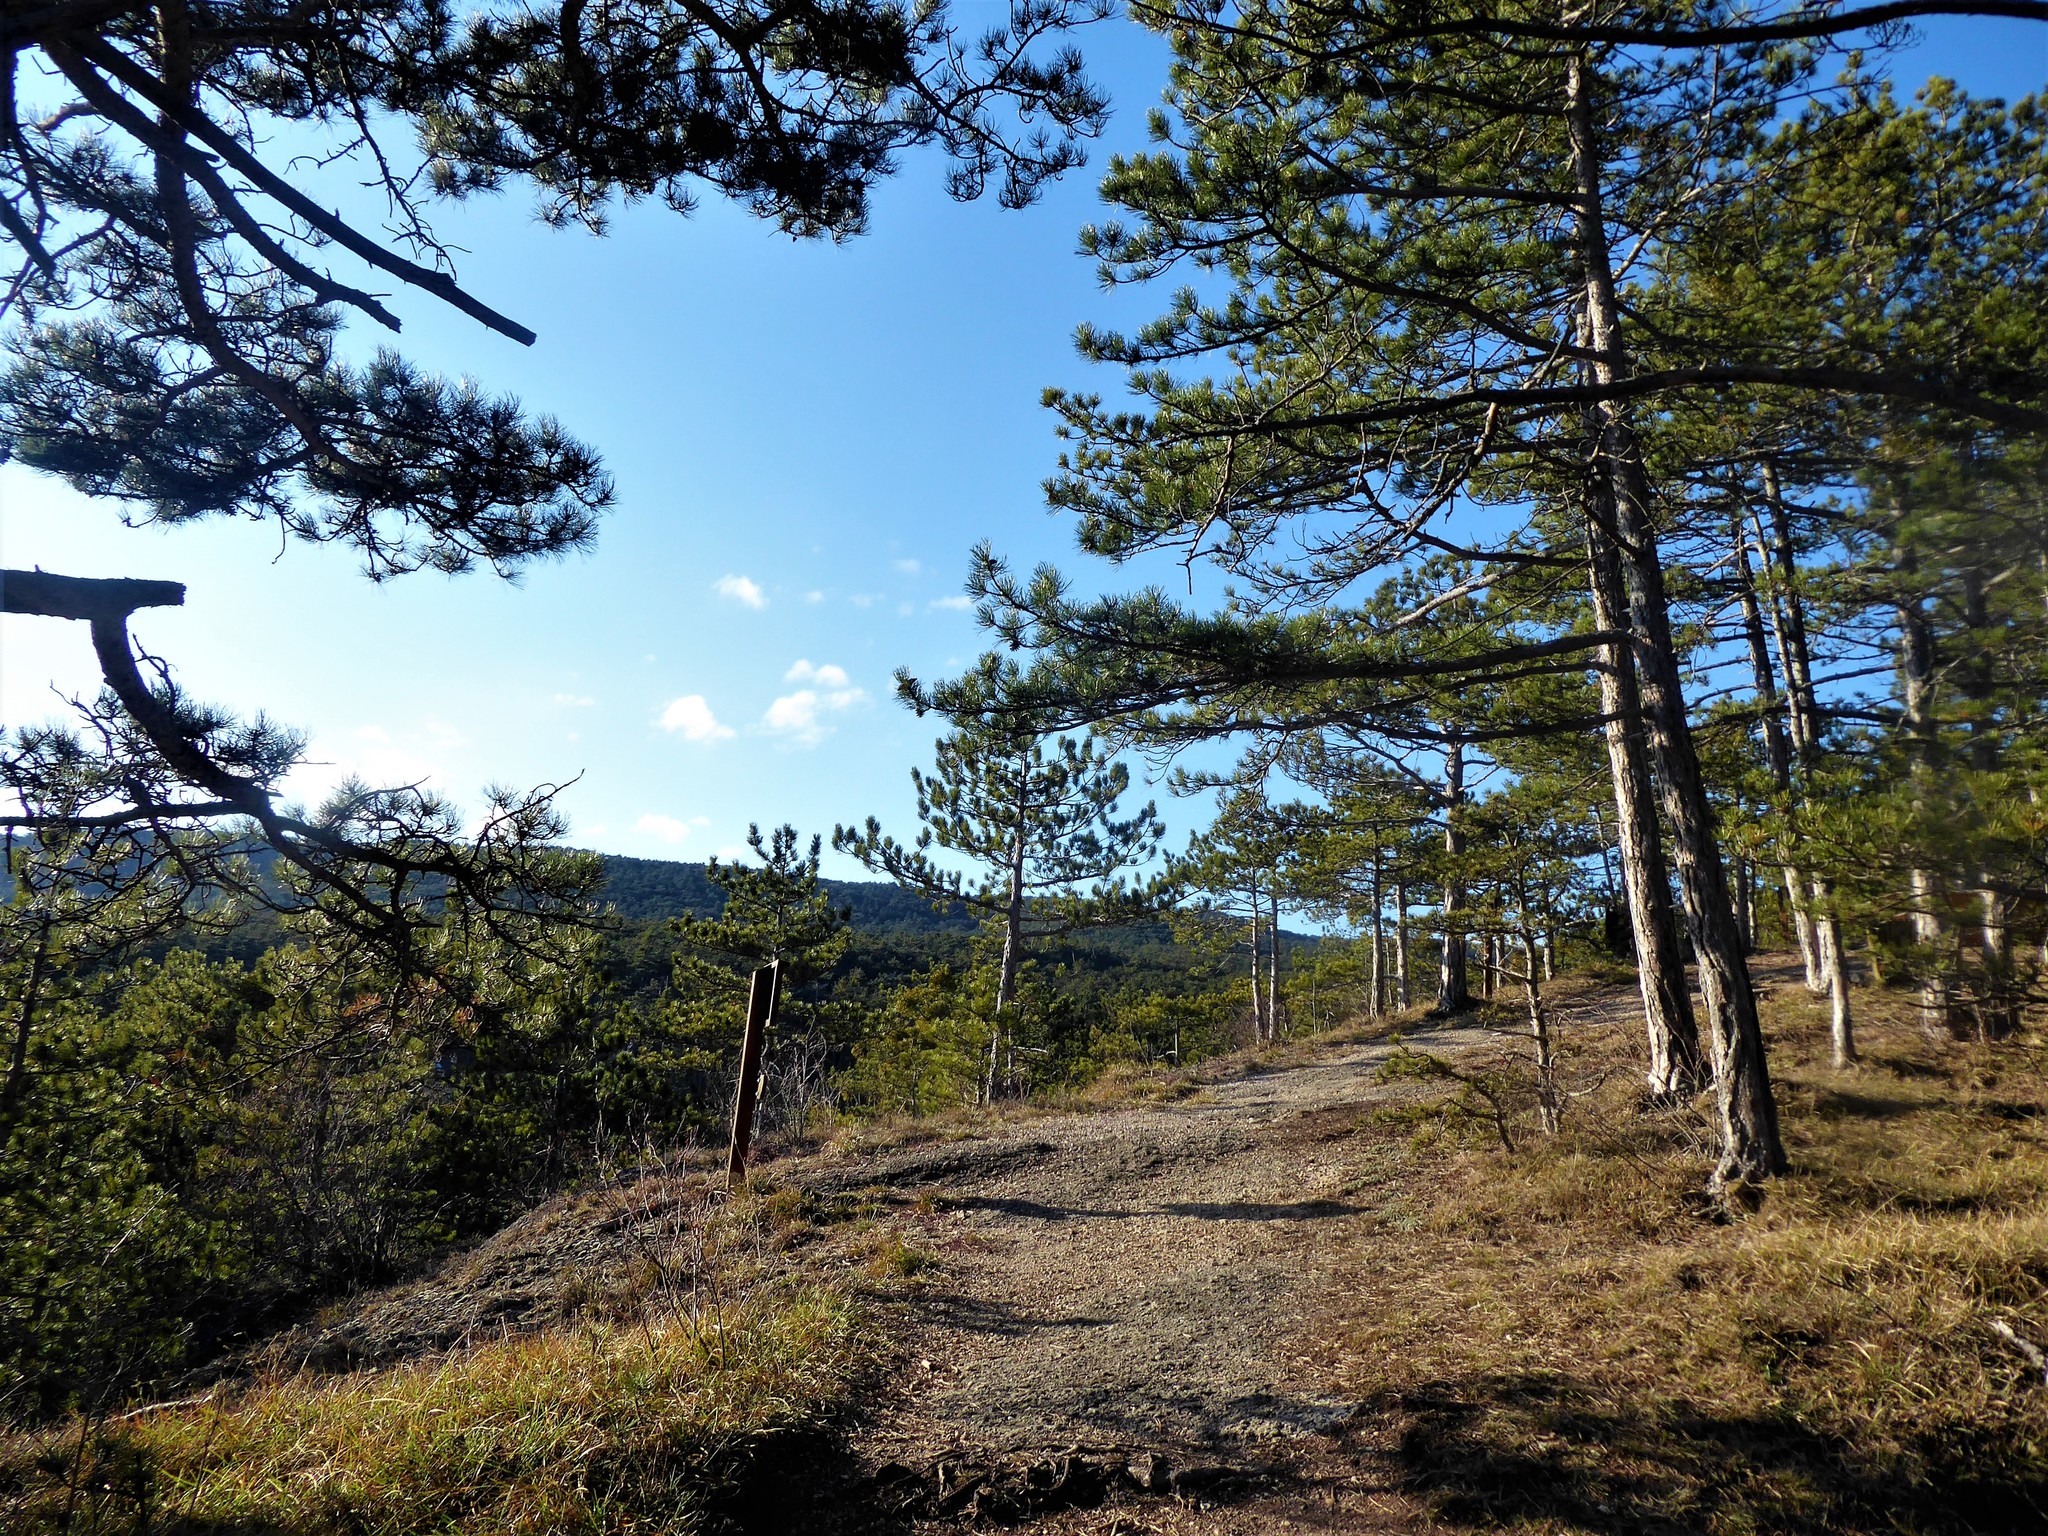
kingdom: Plantae
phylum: Tracheophyta
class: Pinopsida
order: Pinales
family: Pinaceae
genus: Pinus
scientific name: Pinus nigra
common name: Austrian pine
